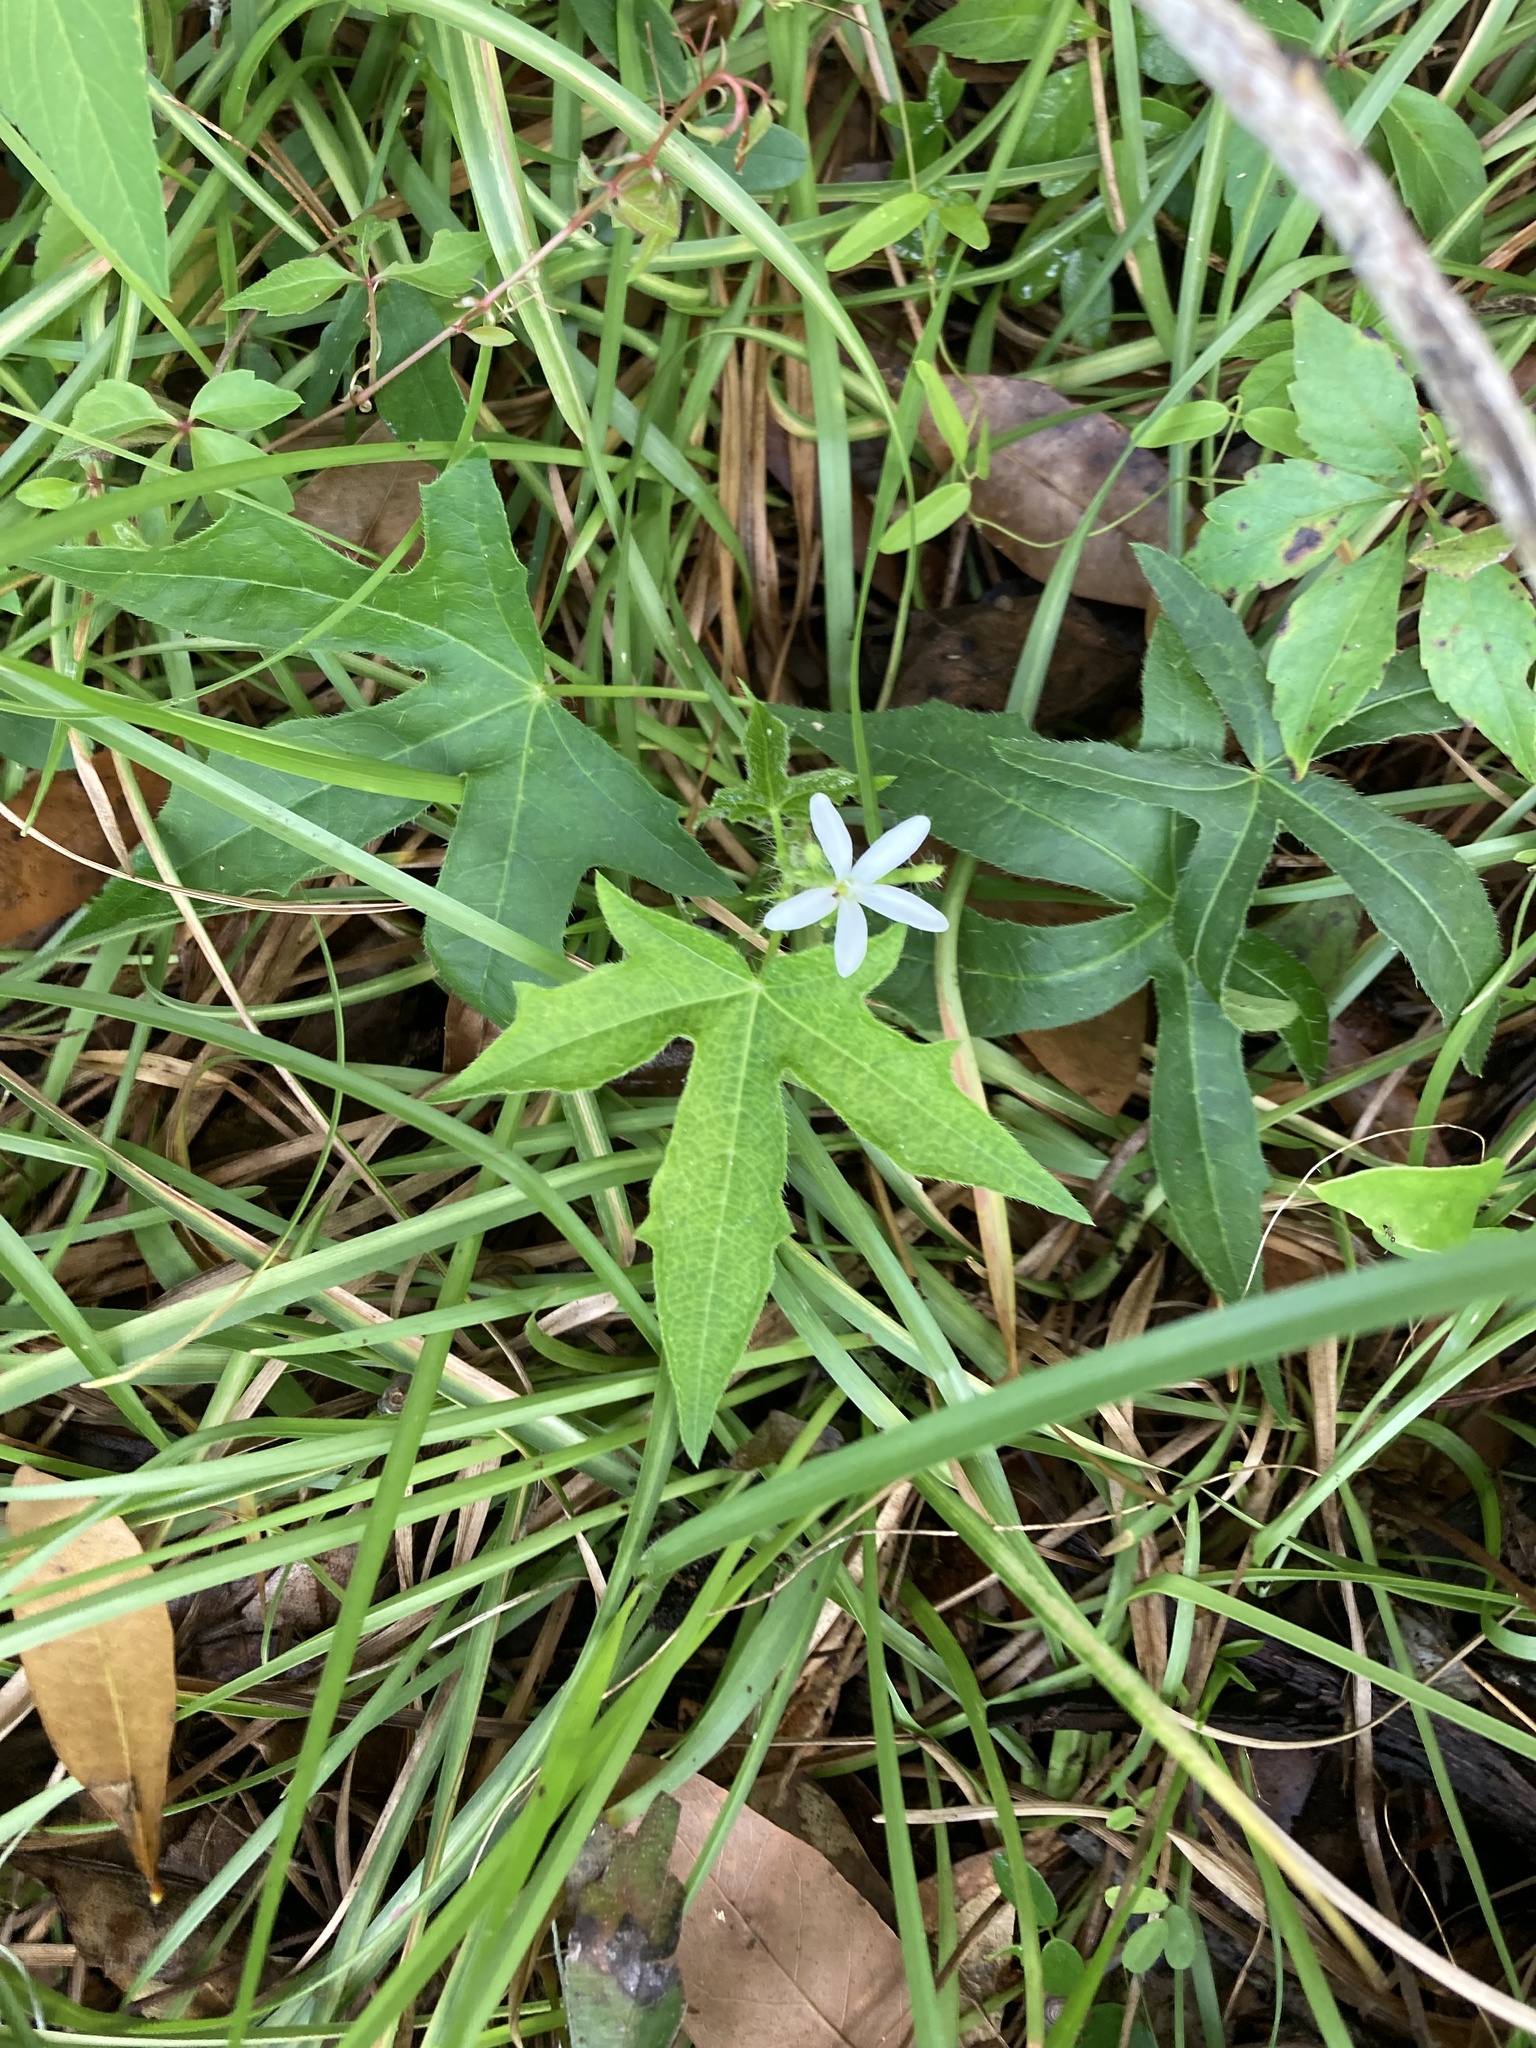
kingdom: Plantae
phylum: Tracheophyta
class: Magnoliopsida
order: Malpighiales
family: Euphorbiaceae
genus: Cnidoscolus
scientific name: Cnidoscolus stimulosus
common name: Bull-nettle
